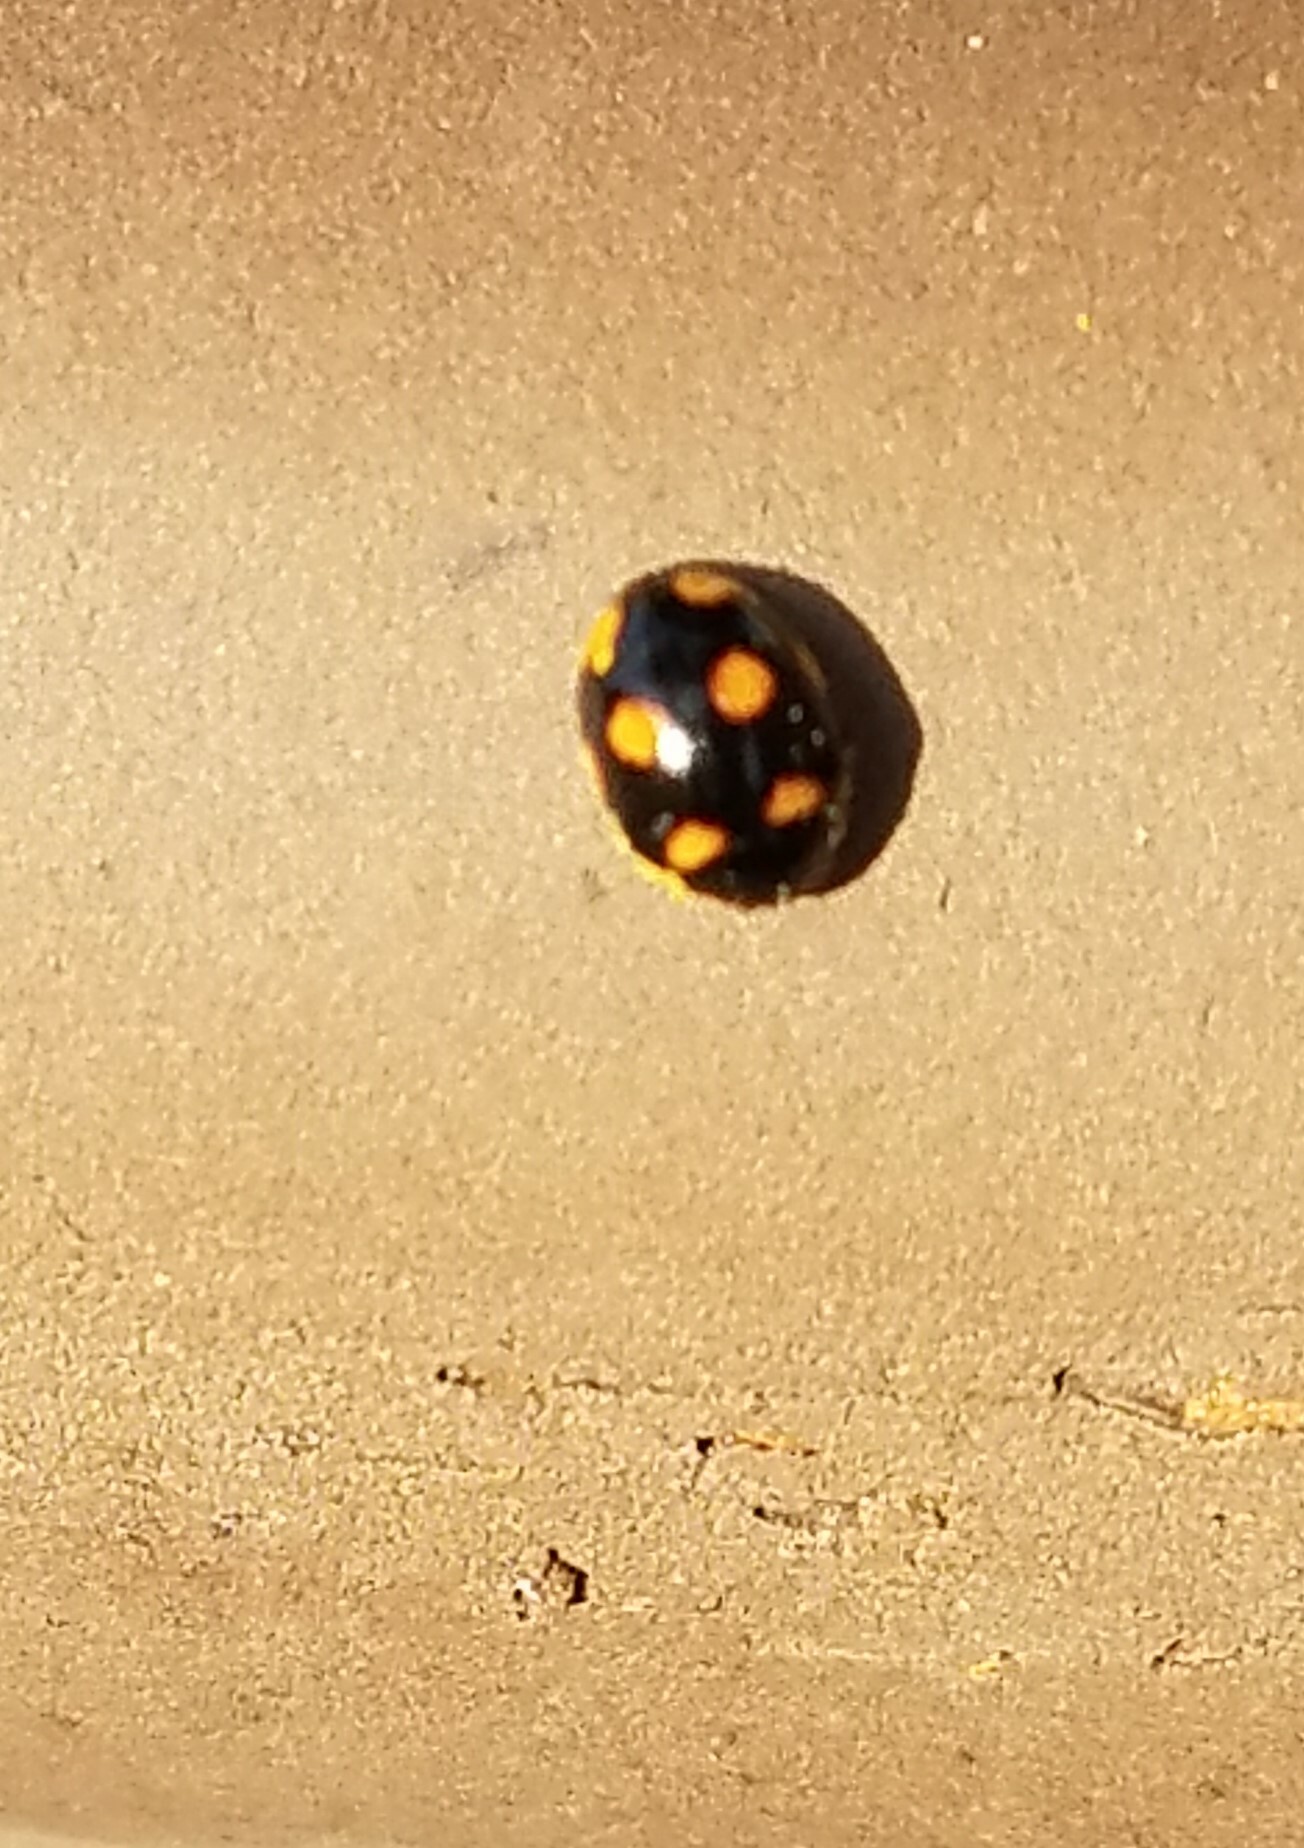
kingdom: Animalia
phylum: Arthropoda
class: Insecta
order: Coleoptera
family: Coccinellidae
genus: Brachiacantha
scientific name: Brachiacantha ursina
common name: Ursine spurleg lady beetle
